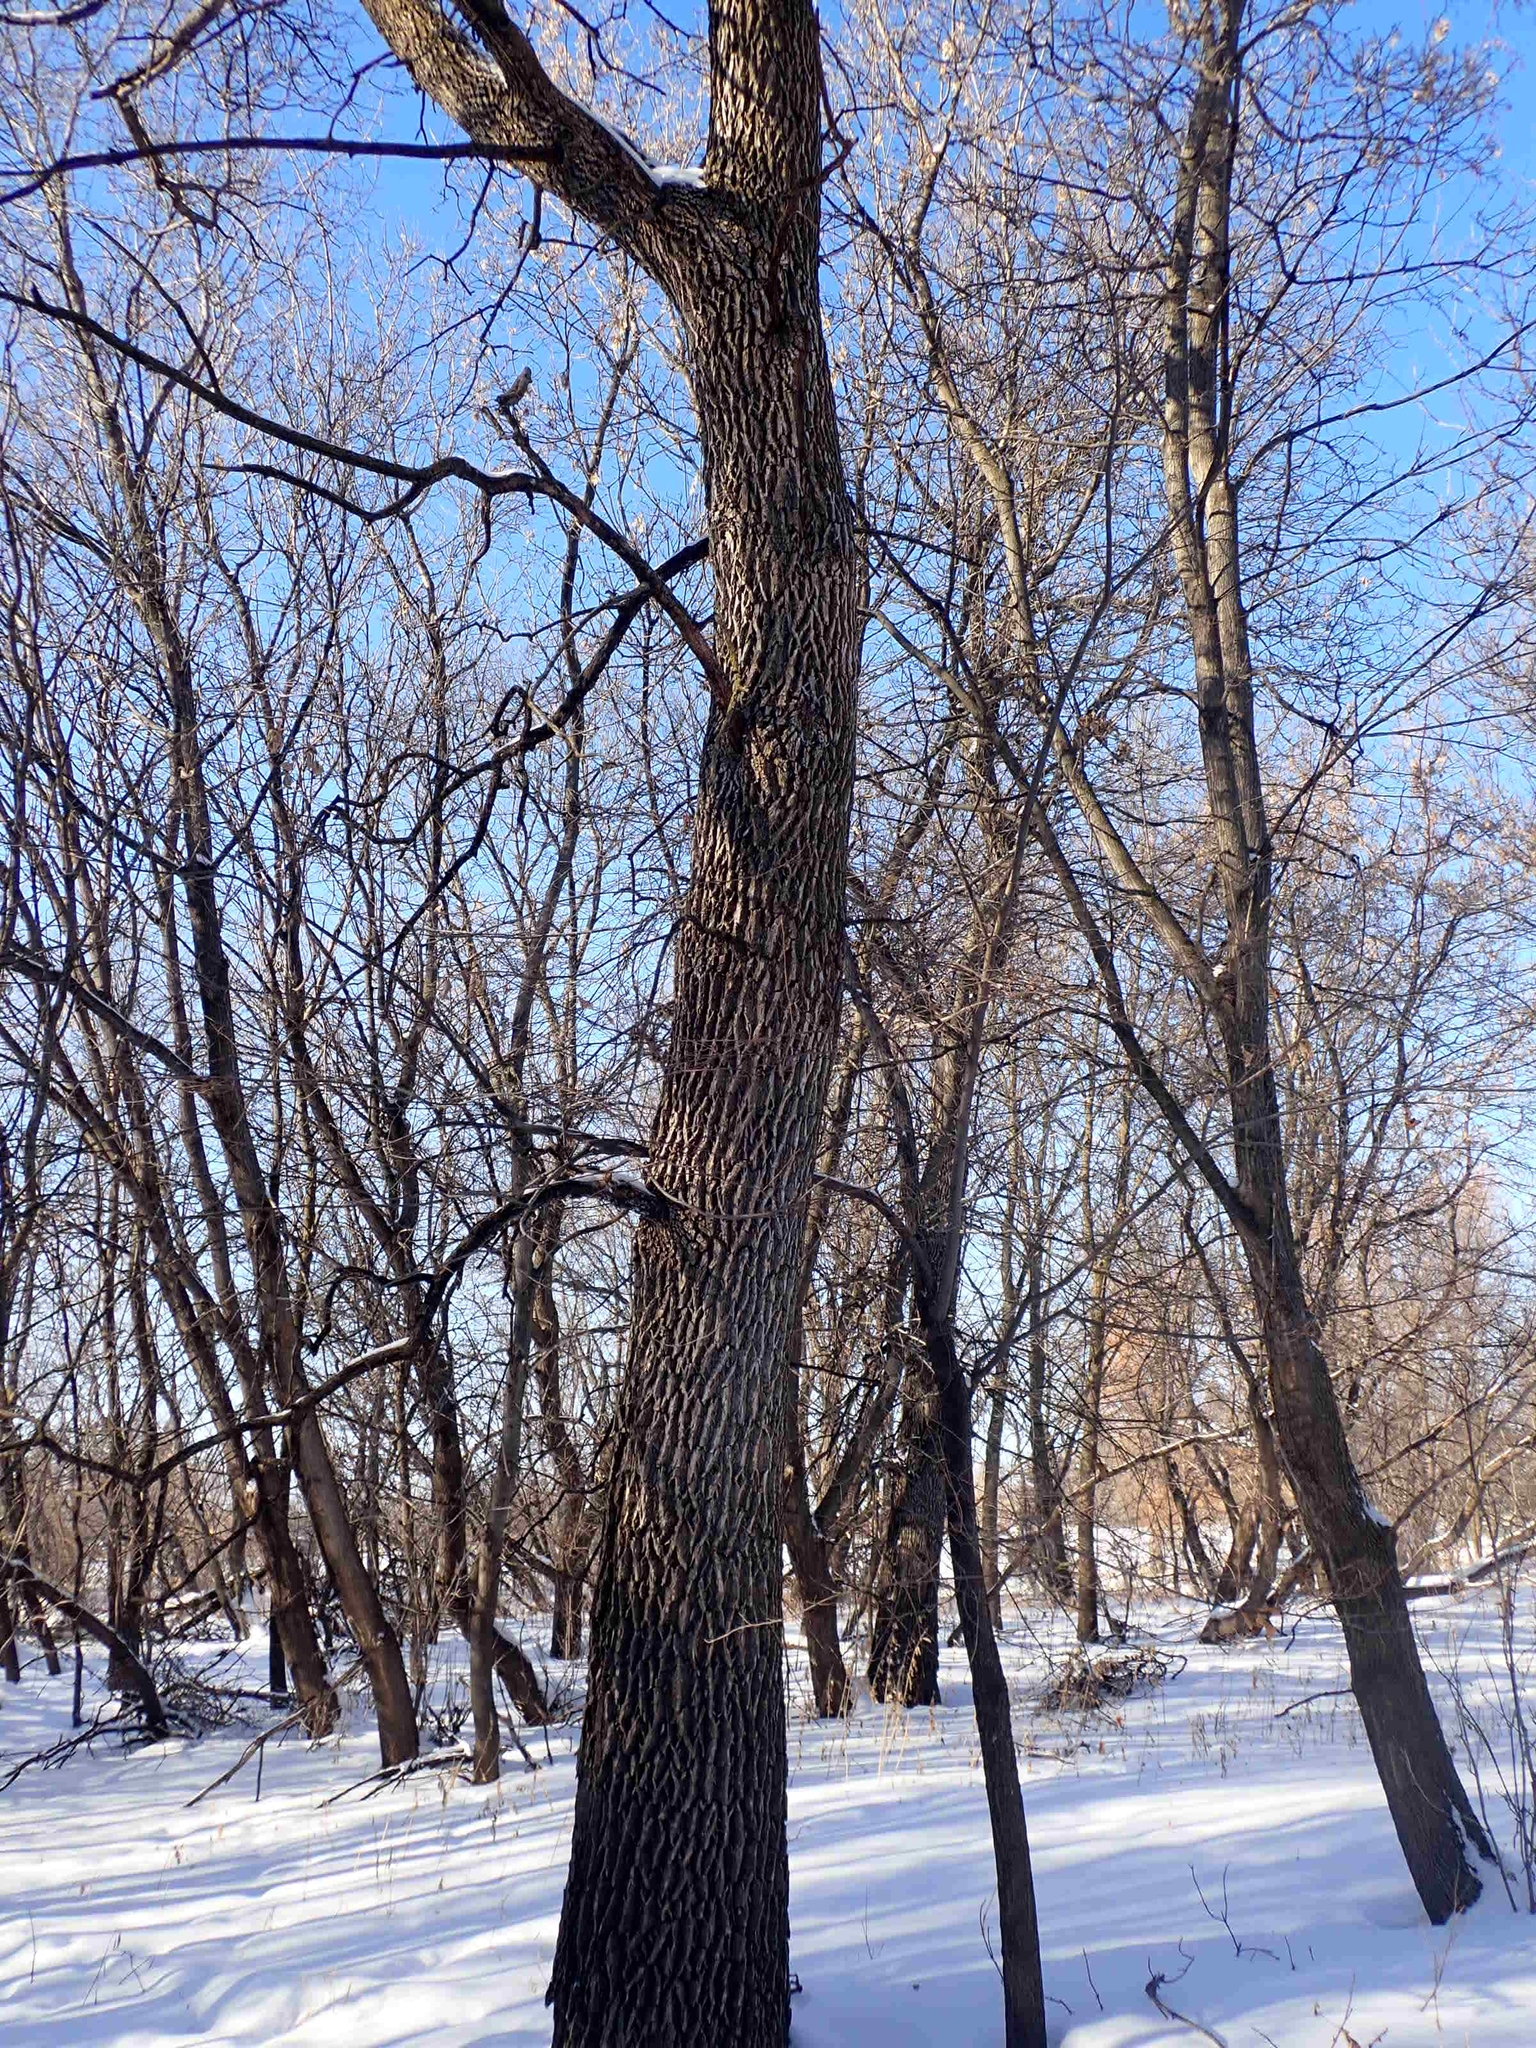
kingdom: Plantae
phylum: Tracheophyta
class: Magnoliopsida
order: Malpighiales
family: Salicaceae
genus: Populus
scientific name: Populus deltoides
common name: Eastern cottonwood
